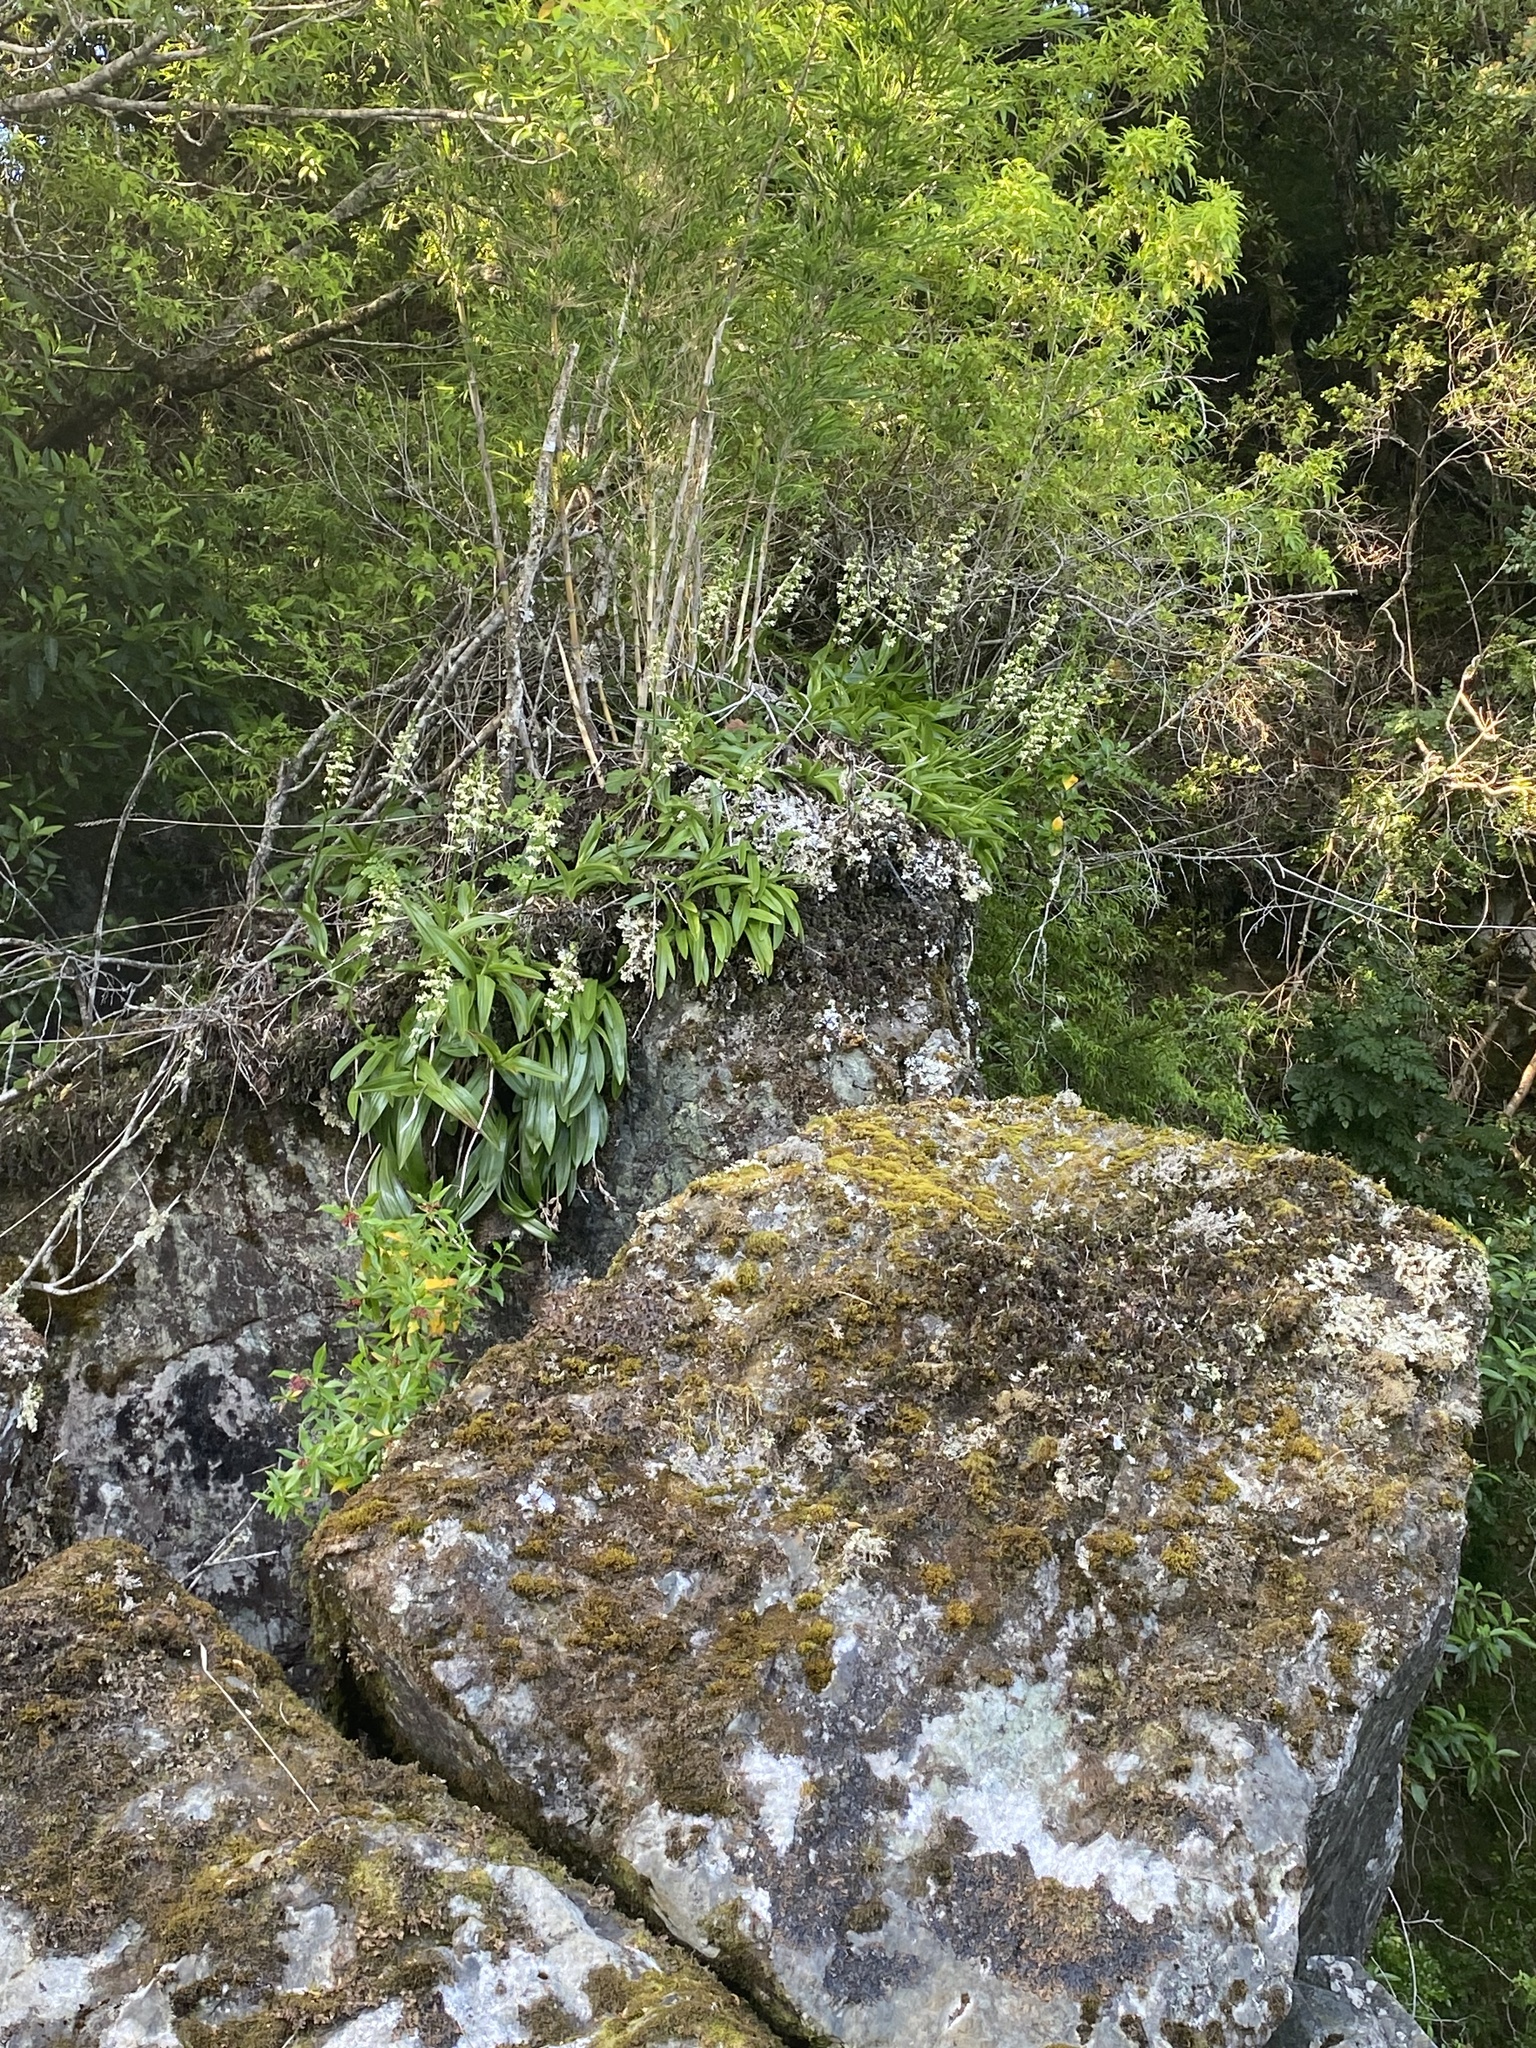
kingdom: Plantae
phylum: Tracheophyta
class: Liliopsida
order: Asparagales
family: Orchidaceae
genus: Gavilea
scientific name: Gavilea araucana
